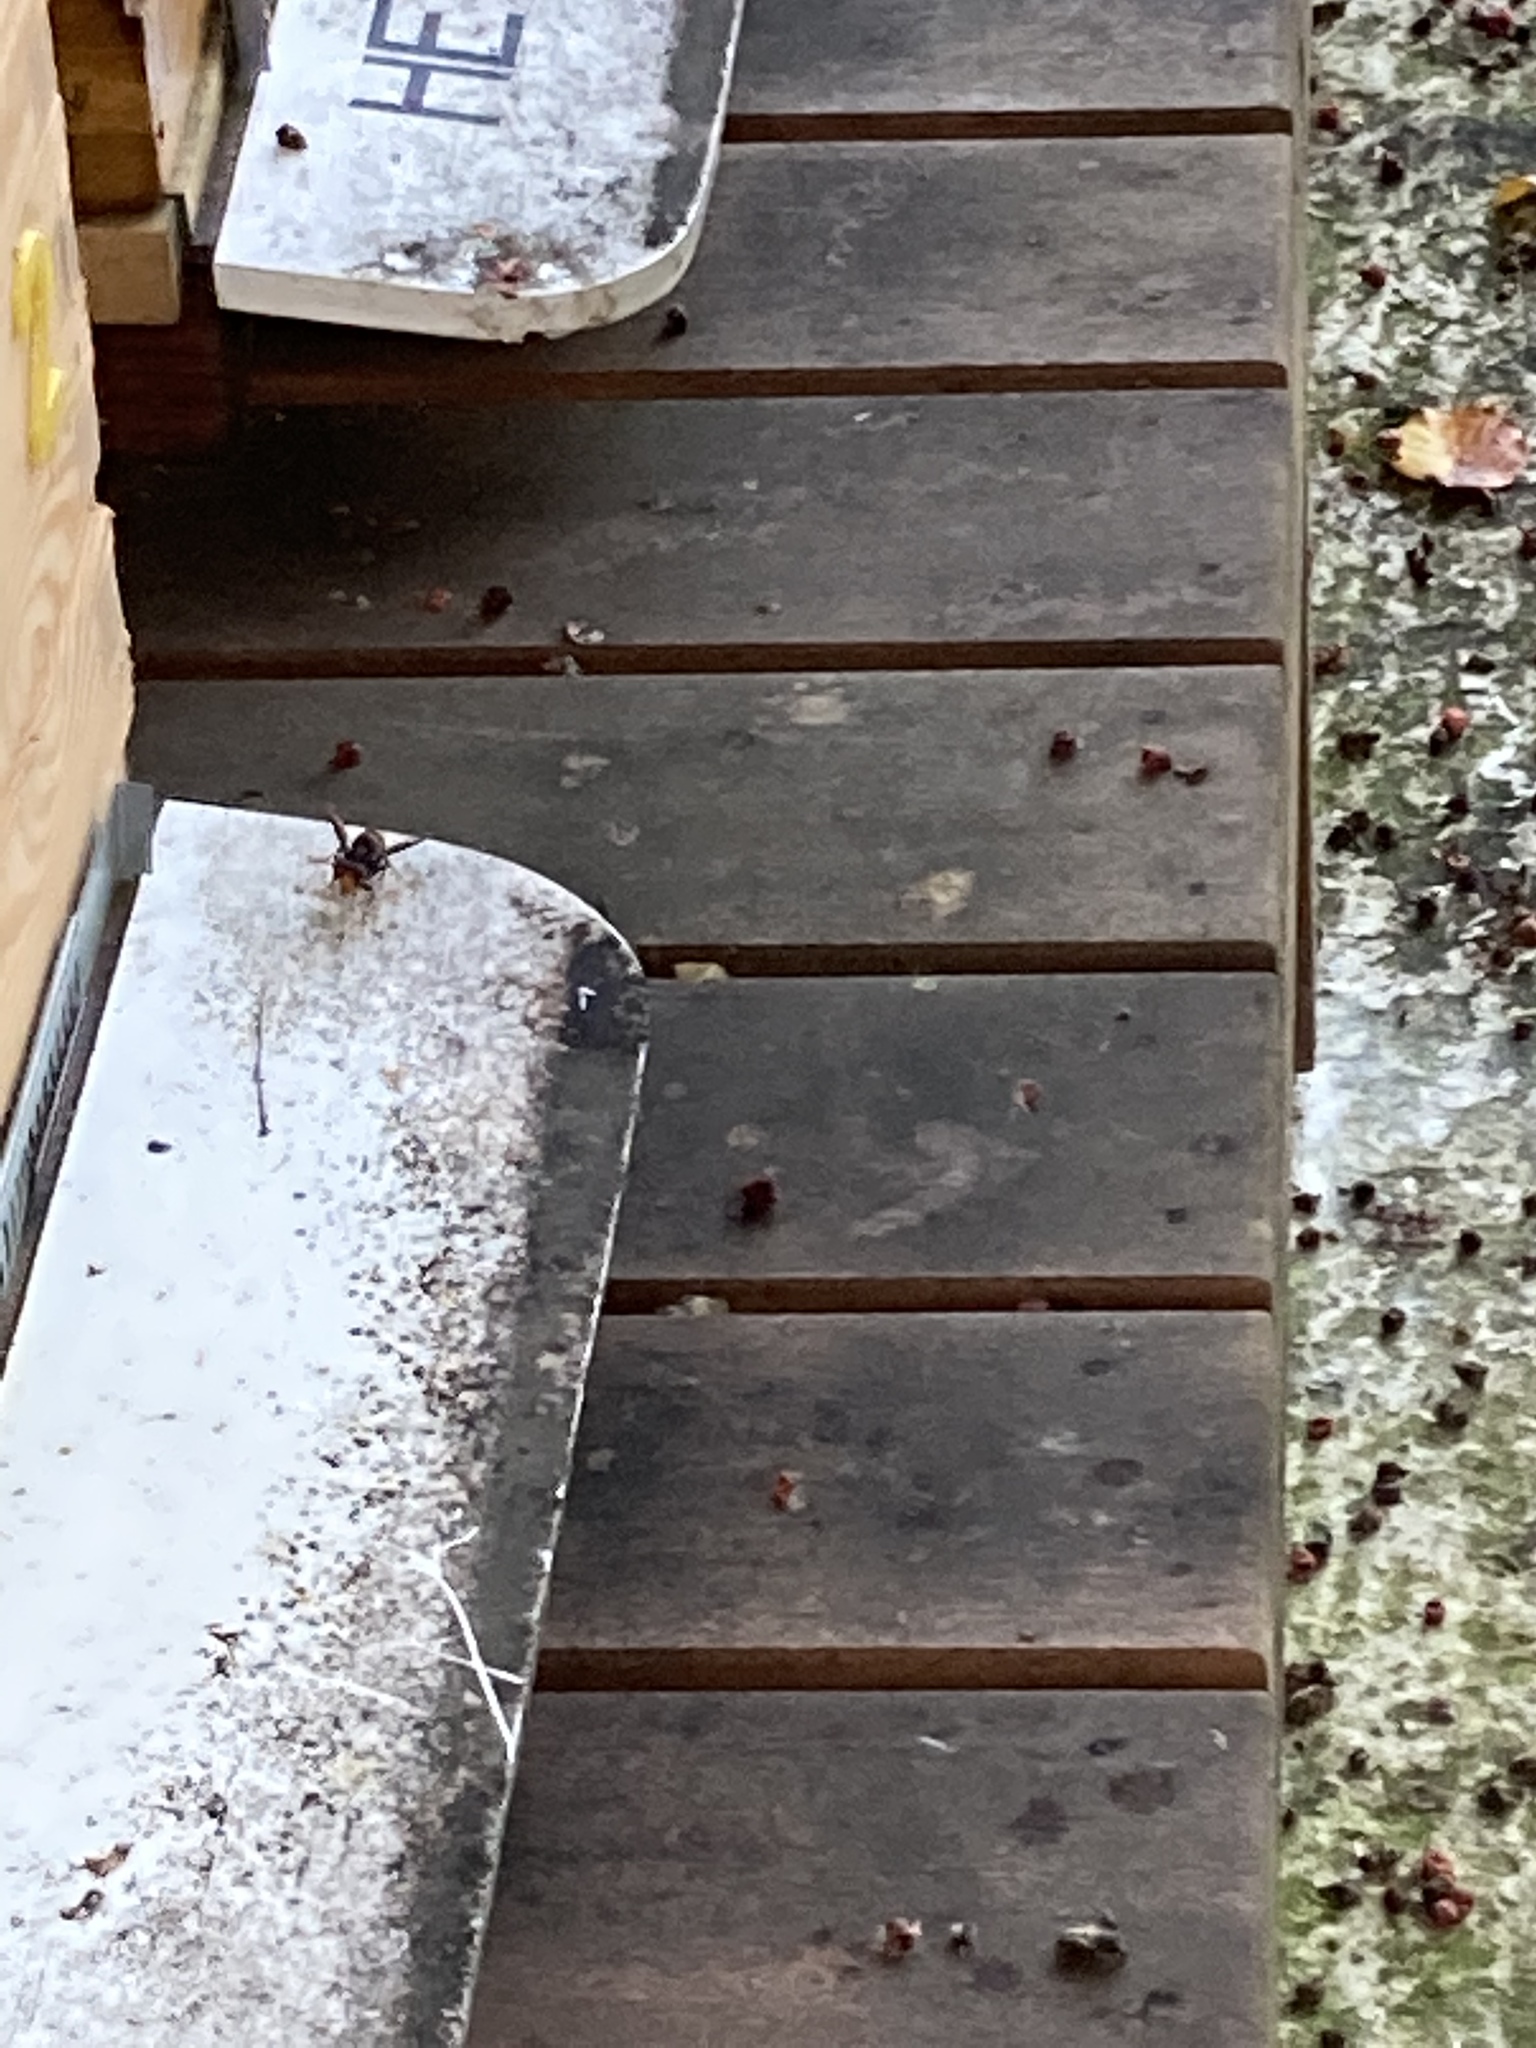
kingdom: Animalia
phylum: Arthropoda
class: Insecta
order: Hymenoptera
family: Vespidae
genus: Vespa
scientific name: Vespa velutina
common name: Asian hornet
